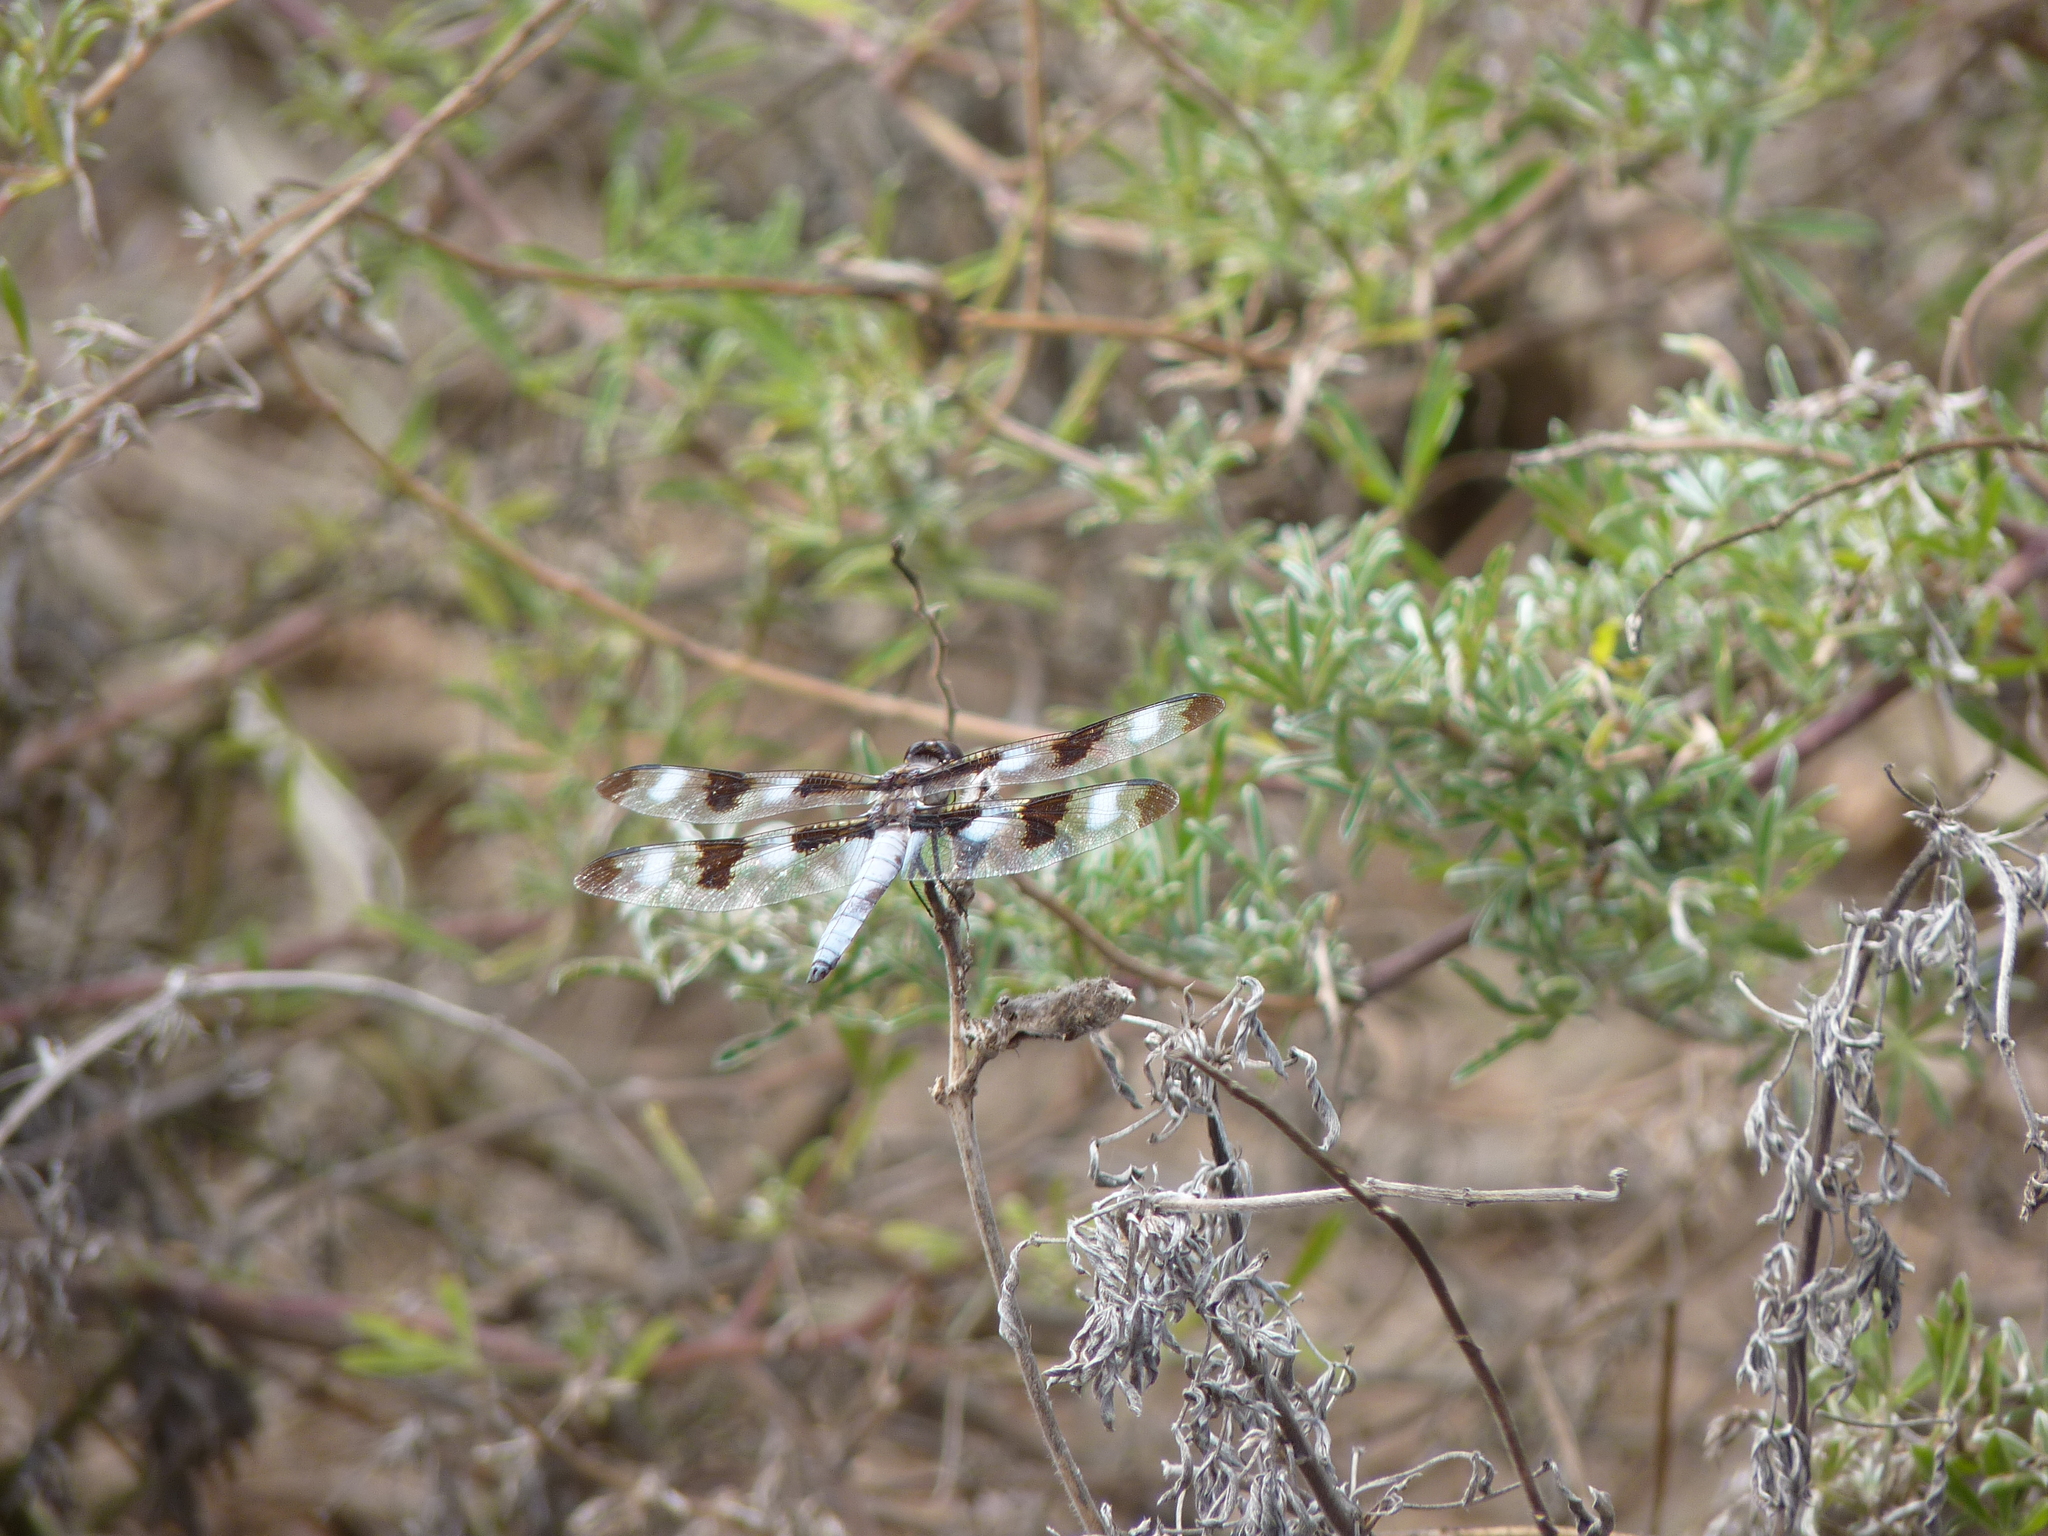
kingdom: Animalia
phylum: Arthropoda
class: Insecta
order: Odonata
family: Libellulidae
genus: Libellula
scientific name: Libellula pulchella
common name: Twelve-spotted skimmer
